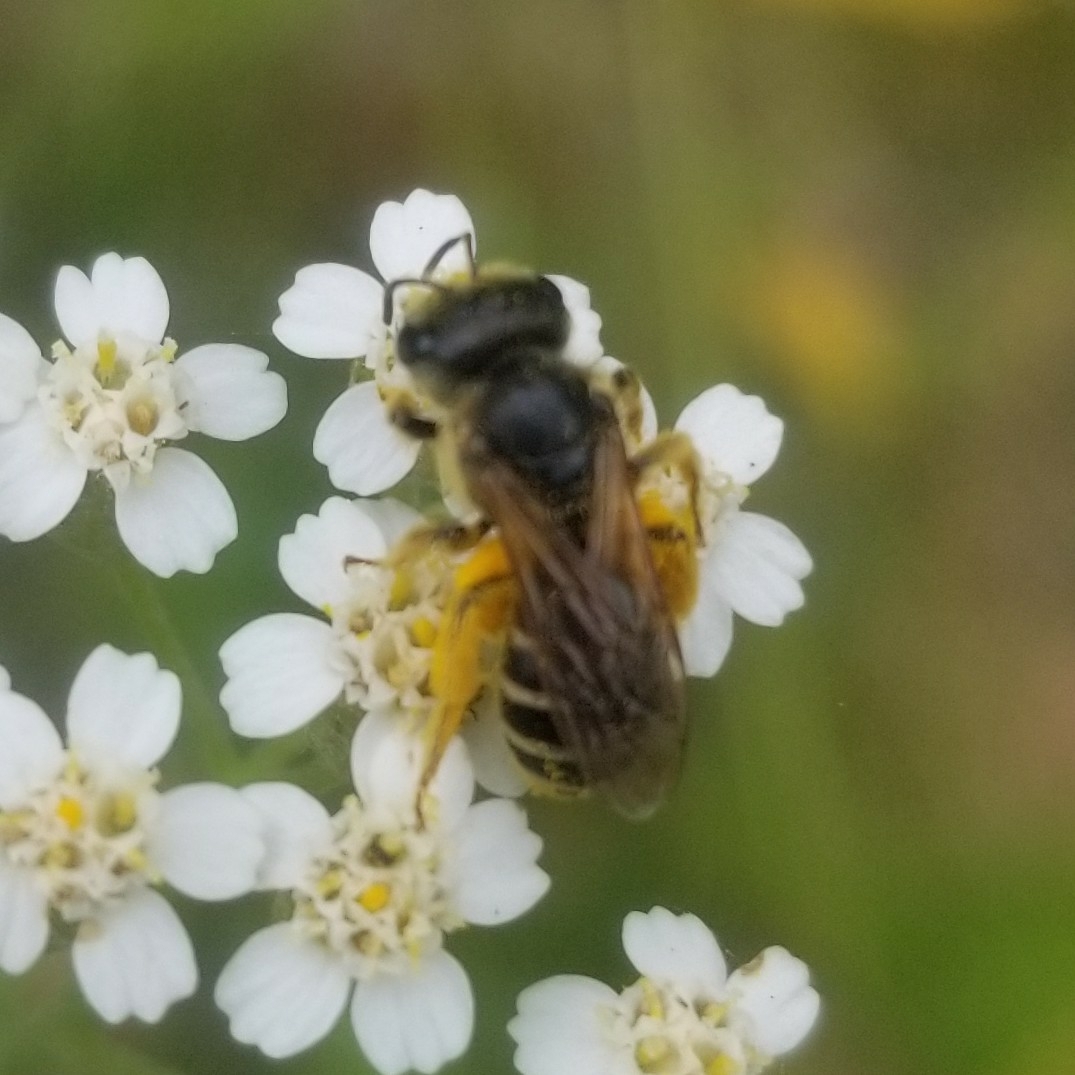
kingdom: Animalia
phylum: Arthropoda
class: Insecta
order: Hymenoptera
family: Halictidae
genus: Halictus
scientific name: Halictus ligatus
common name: Ligated furrow bee
